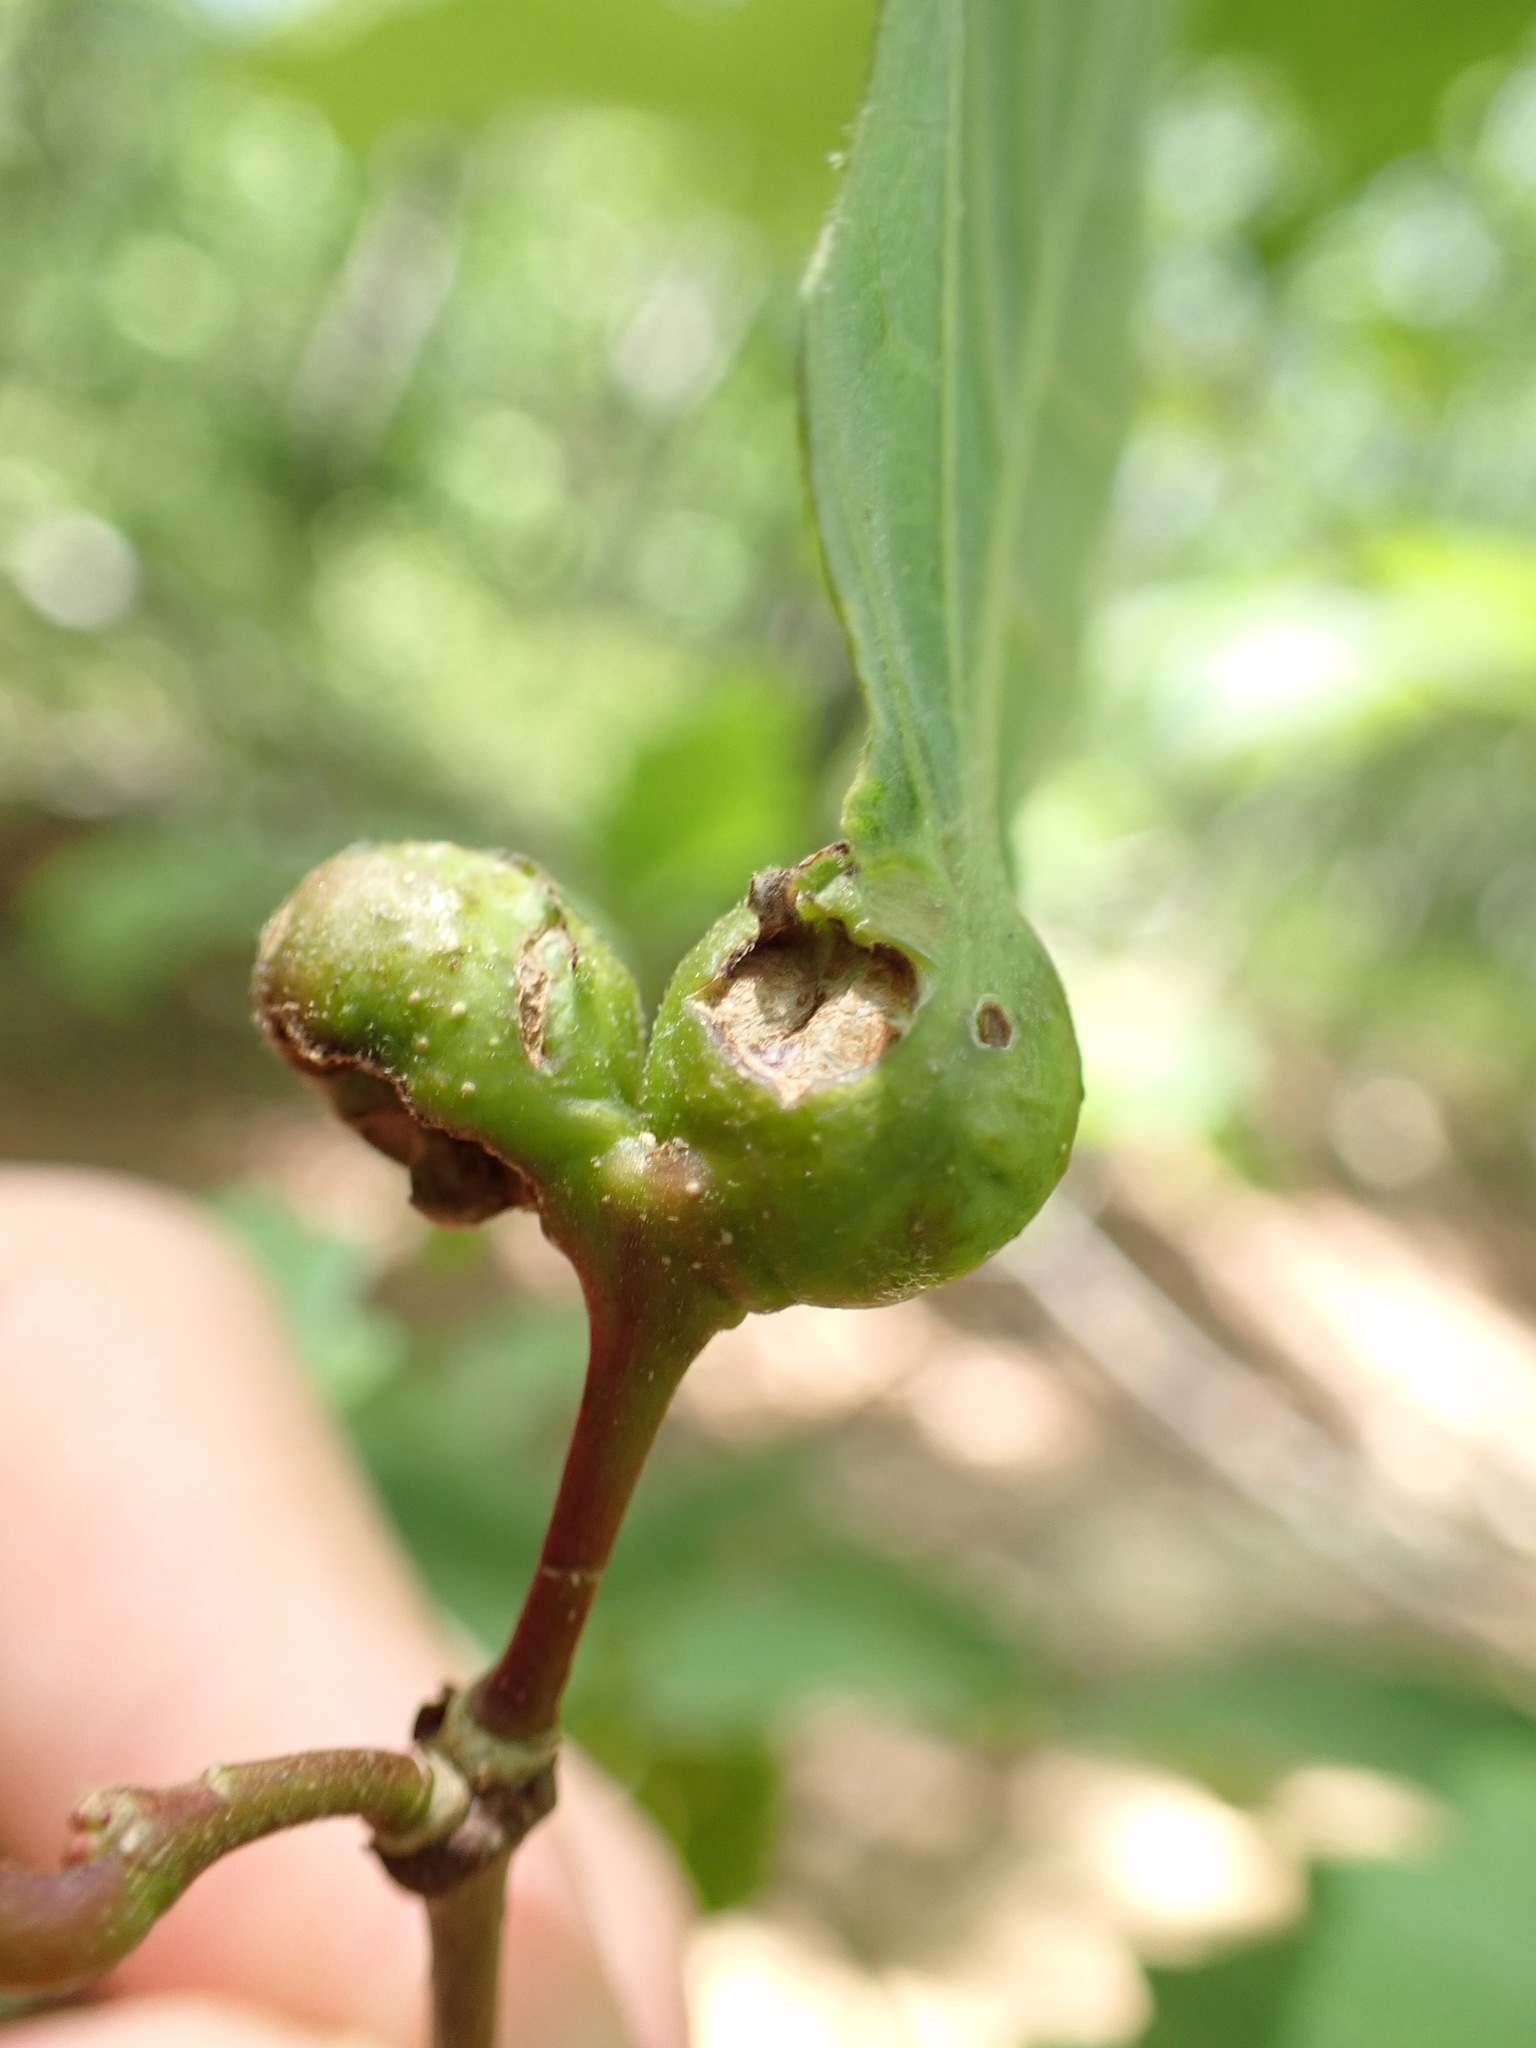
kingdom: Animalia
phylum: Arthropoda
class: Insecta
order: Hymenoptera
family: Cynipidae
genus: Andricus
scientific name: Andricus
